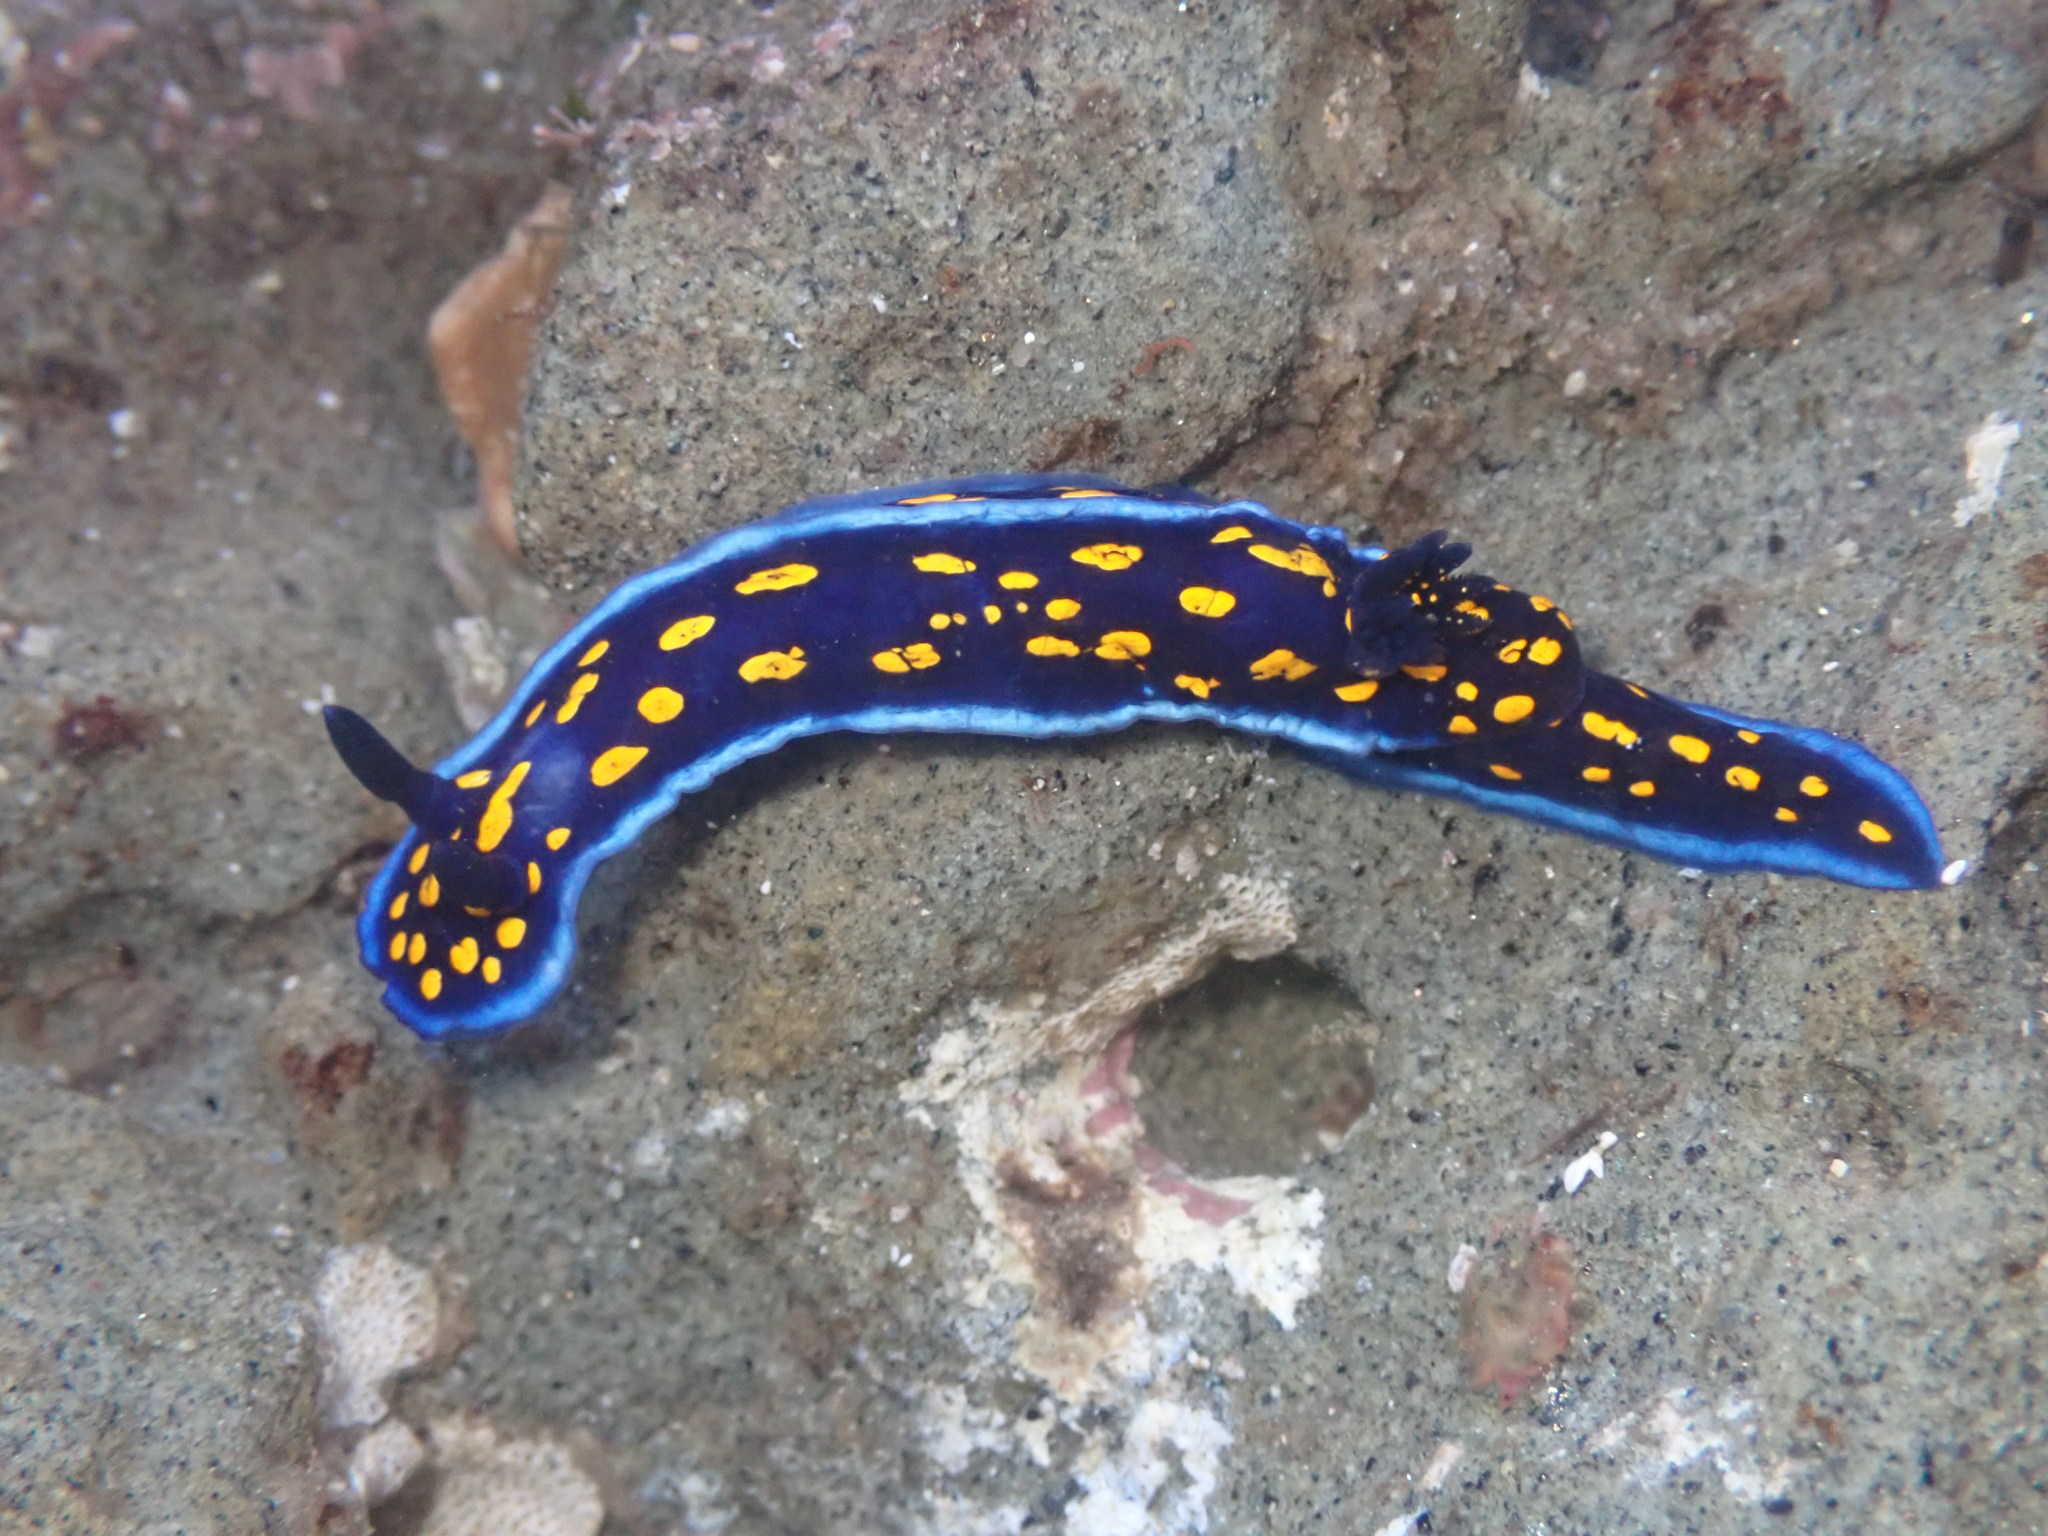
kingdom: Animalia
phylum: Mollusca
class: Gastropoda
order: Nudibranchia
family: Chromodorididae
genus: Felimare
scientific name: Felimare californiensis
